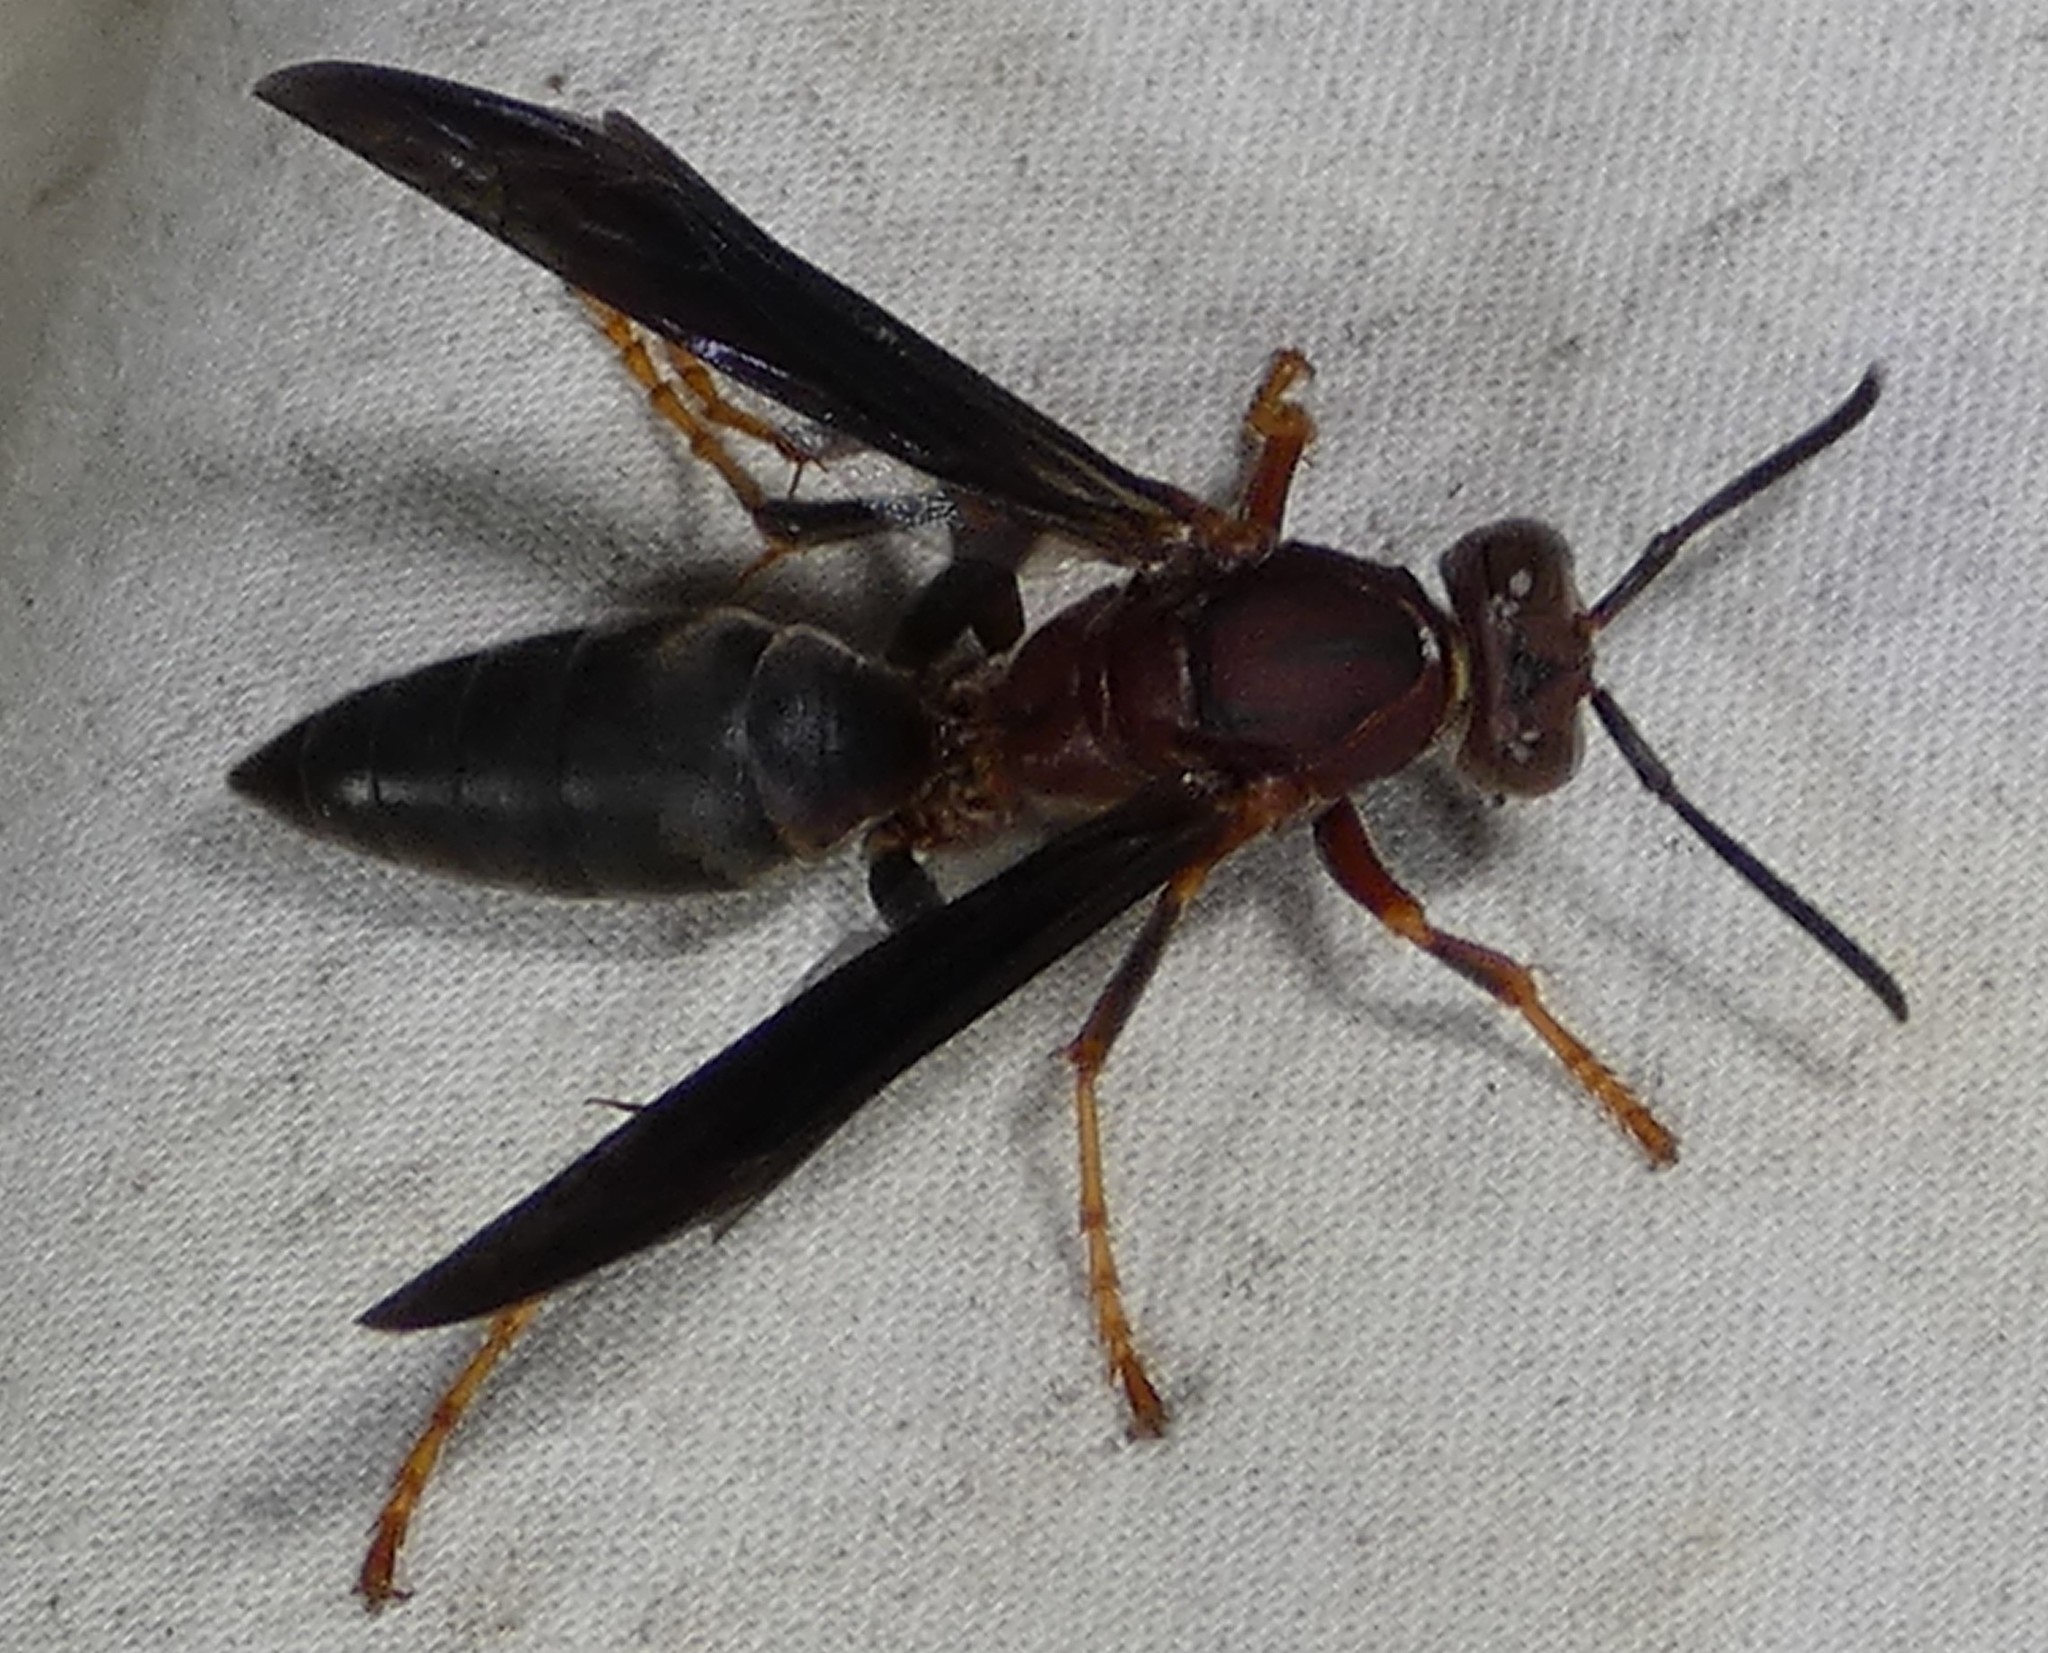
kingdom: Animalia
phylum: Arthropoda
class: Insecta
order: Hymenoptera
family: Eumenidae
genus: Polistes
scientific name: Polistes metricus
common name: Metric paper wasp
